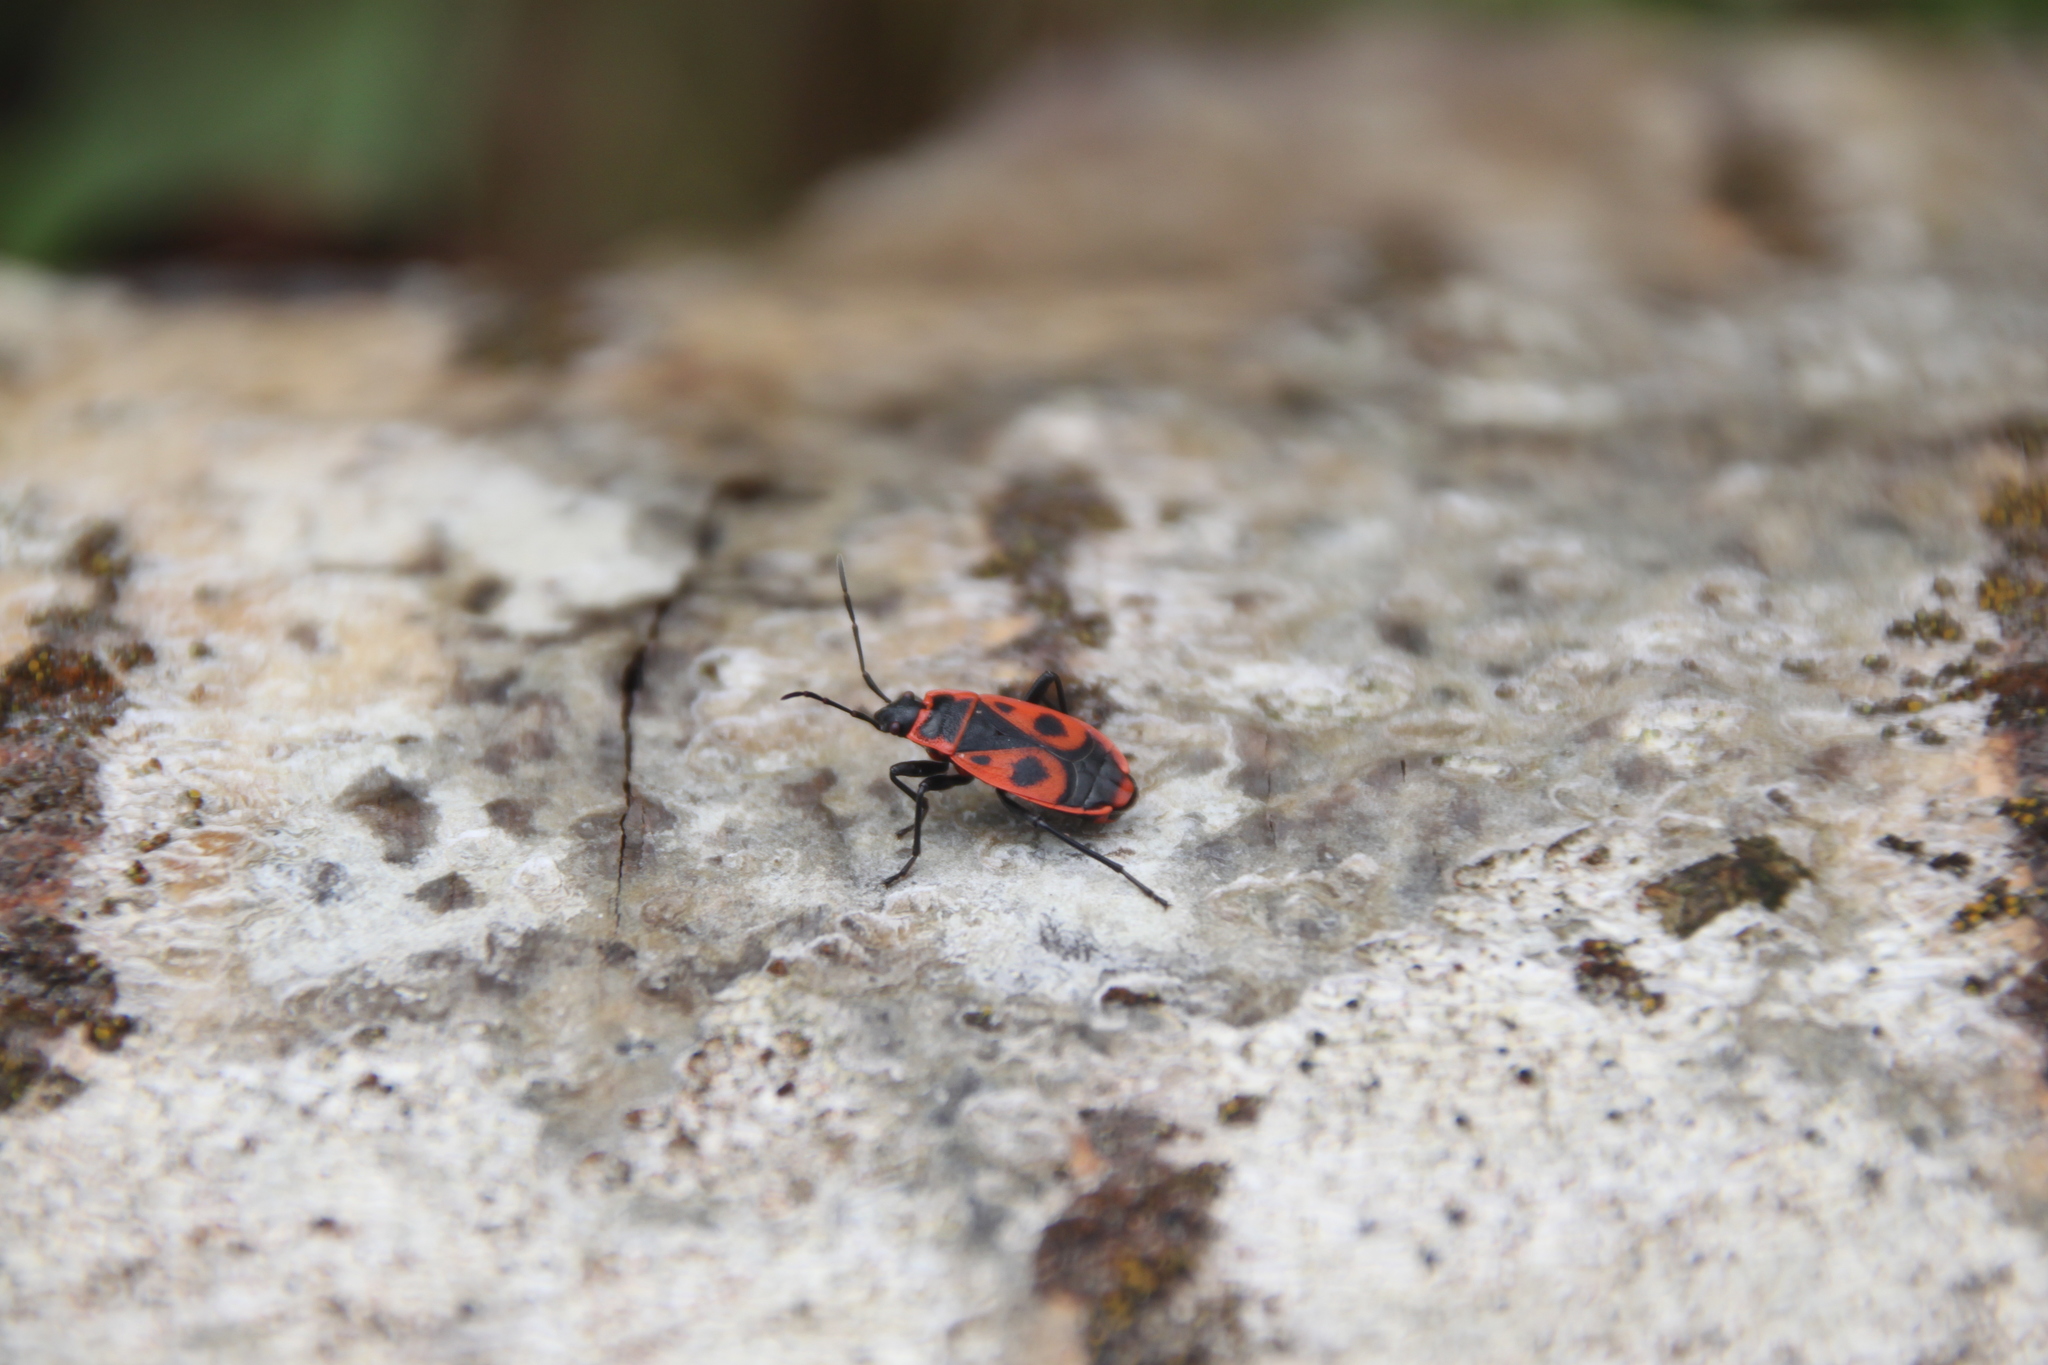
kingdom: Animalia
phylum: Arthropoda
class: Insecta
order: Hemiptera
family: Pyrrhocoridae
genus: Pyrrhocoris
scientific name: Pyrrhocoris apterus
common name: Firebug
